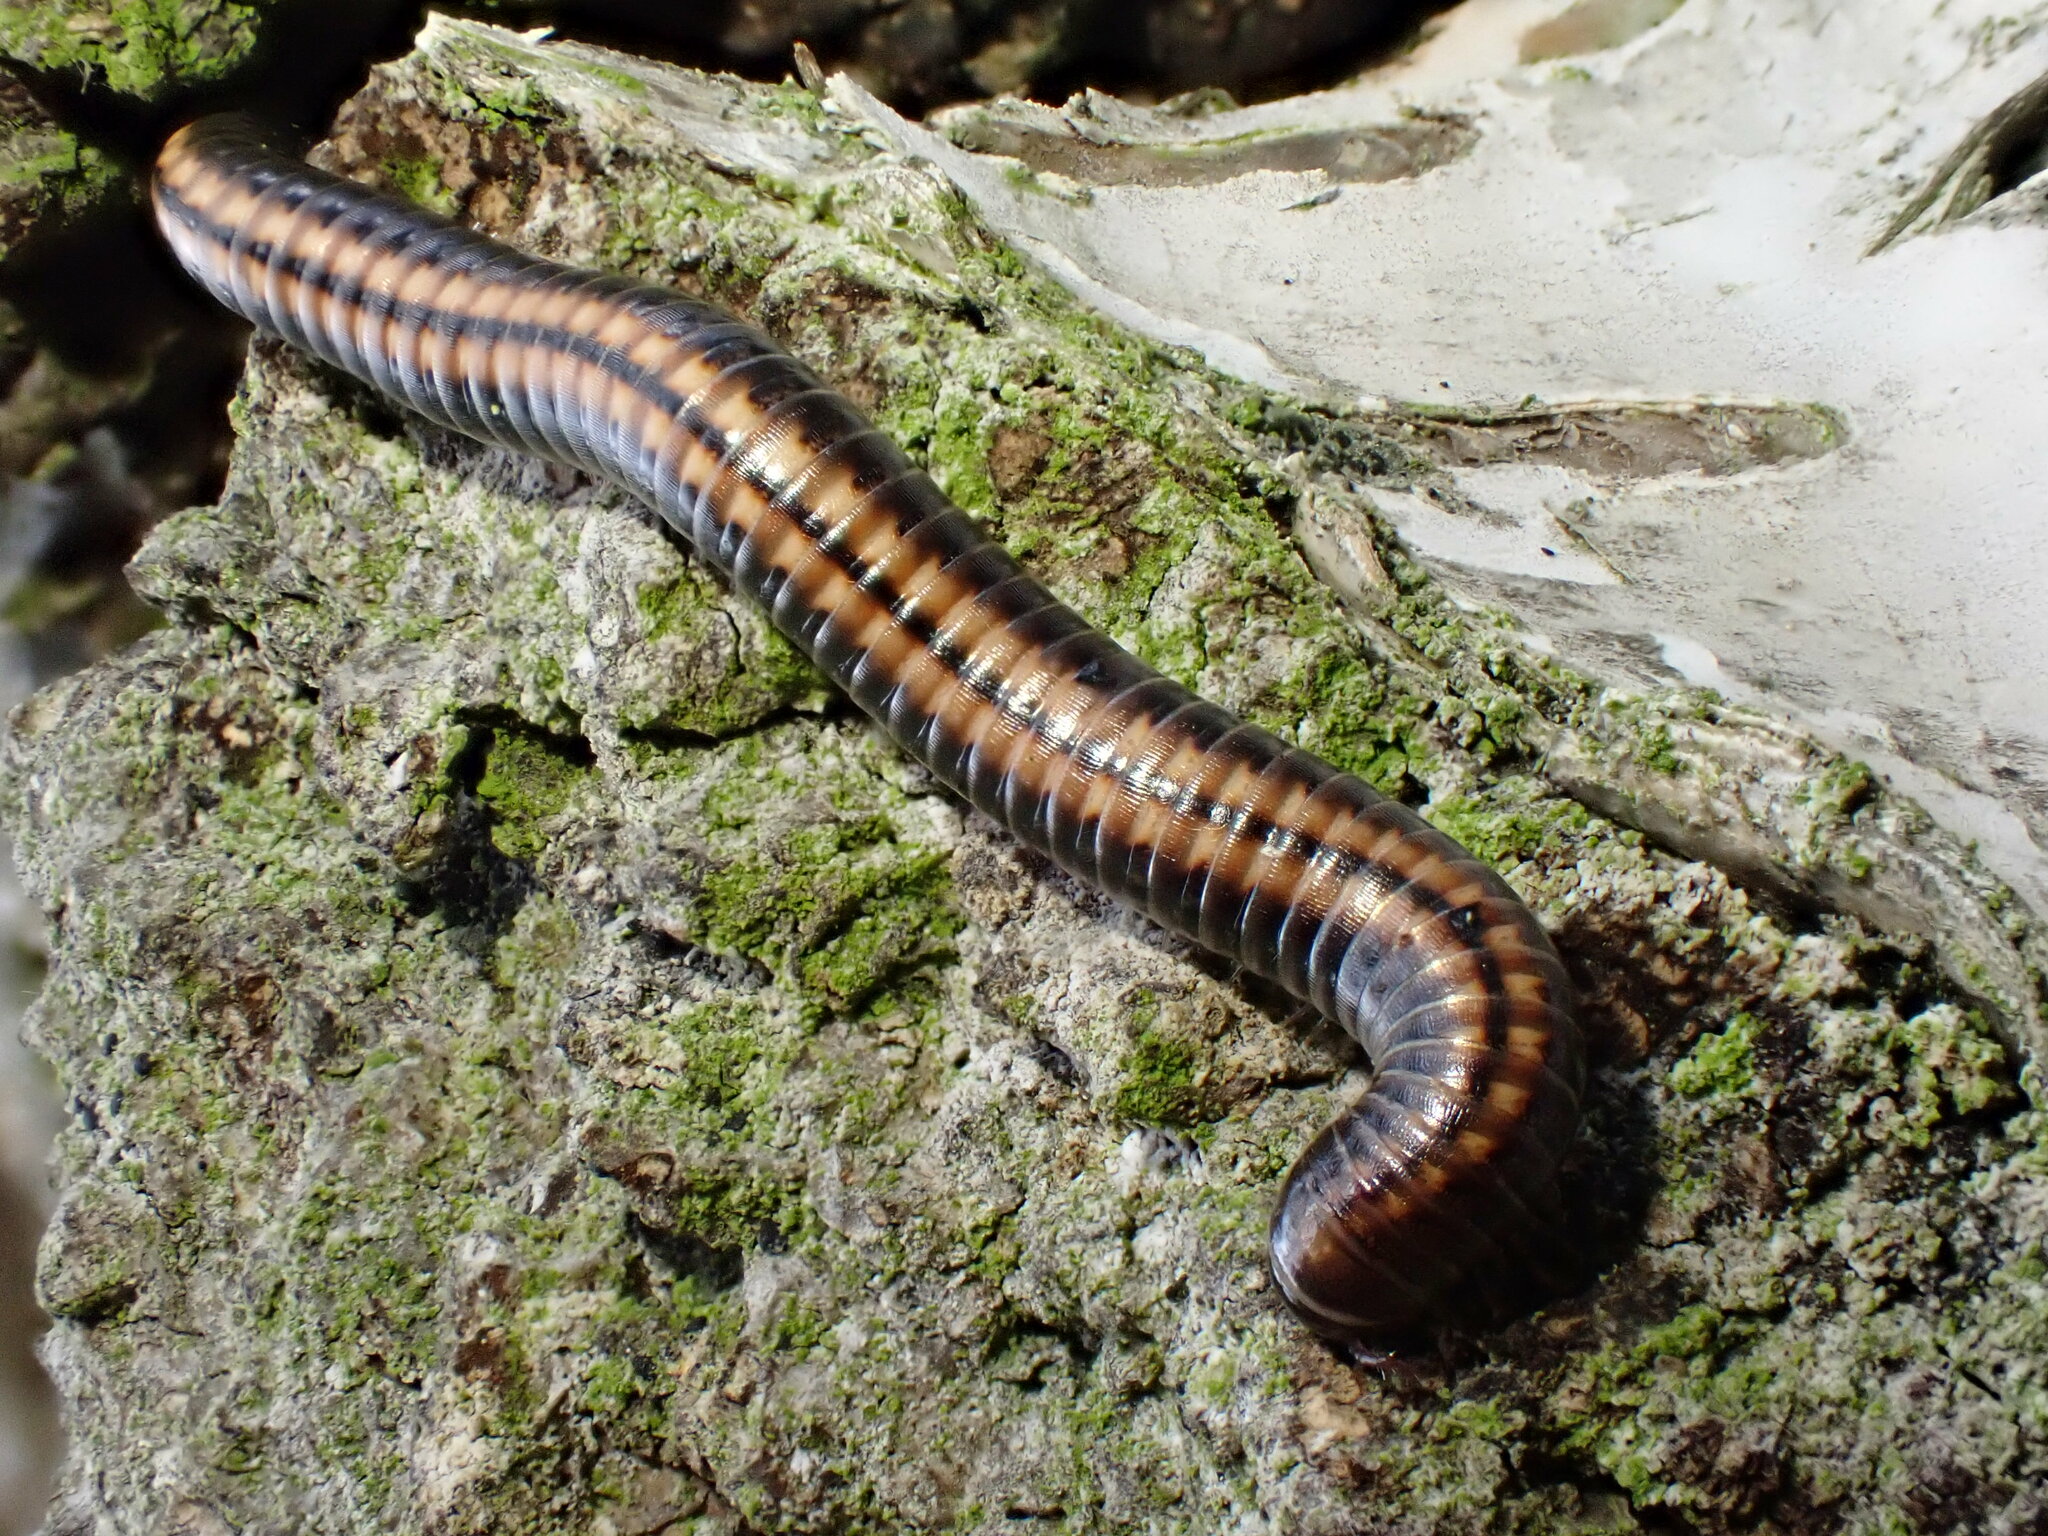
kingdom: Animalia
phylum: Arthropoda
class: Diplopoda
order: Julida
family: Julidae
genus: Ommatoiulus
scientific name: Ommatoiulus sabulosus
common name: Striped millipede
